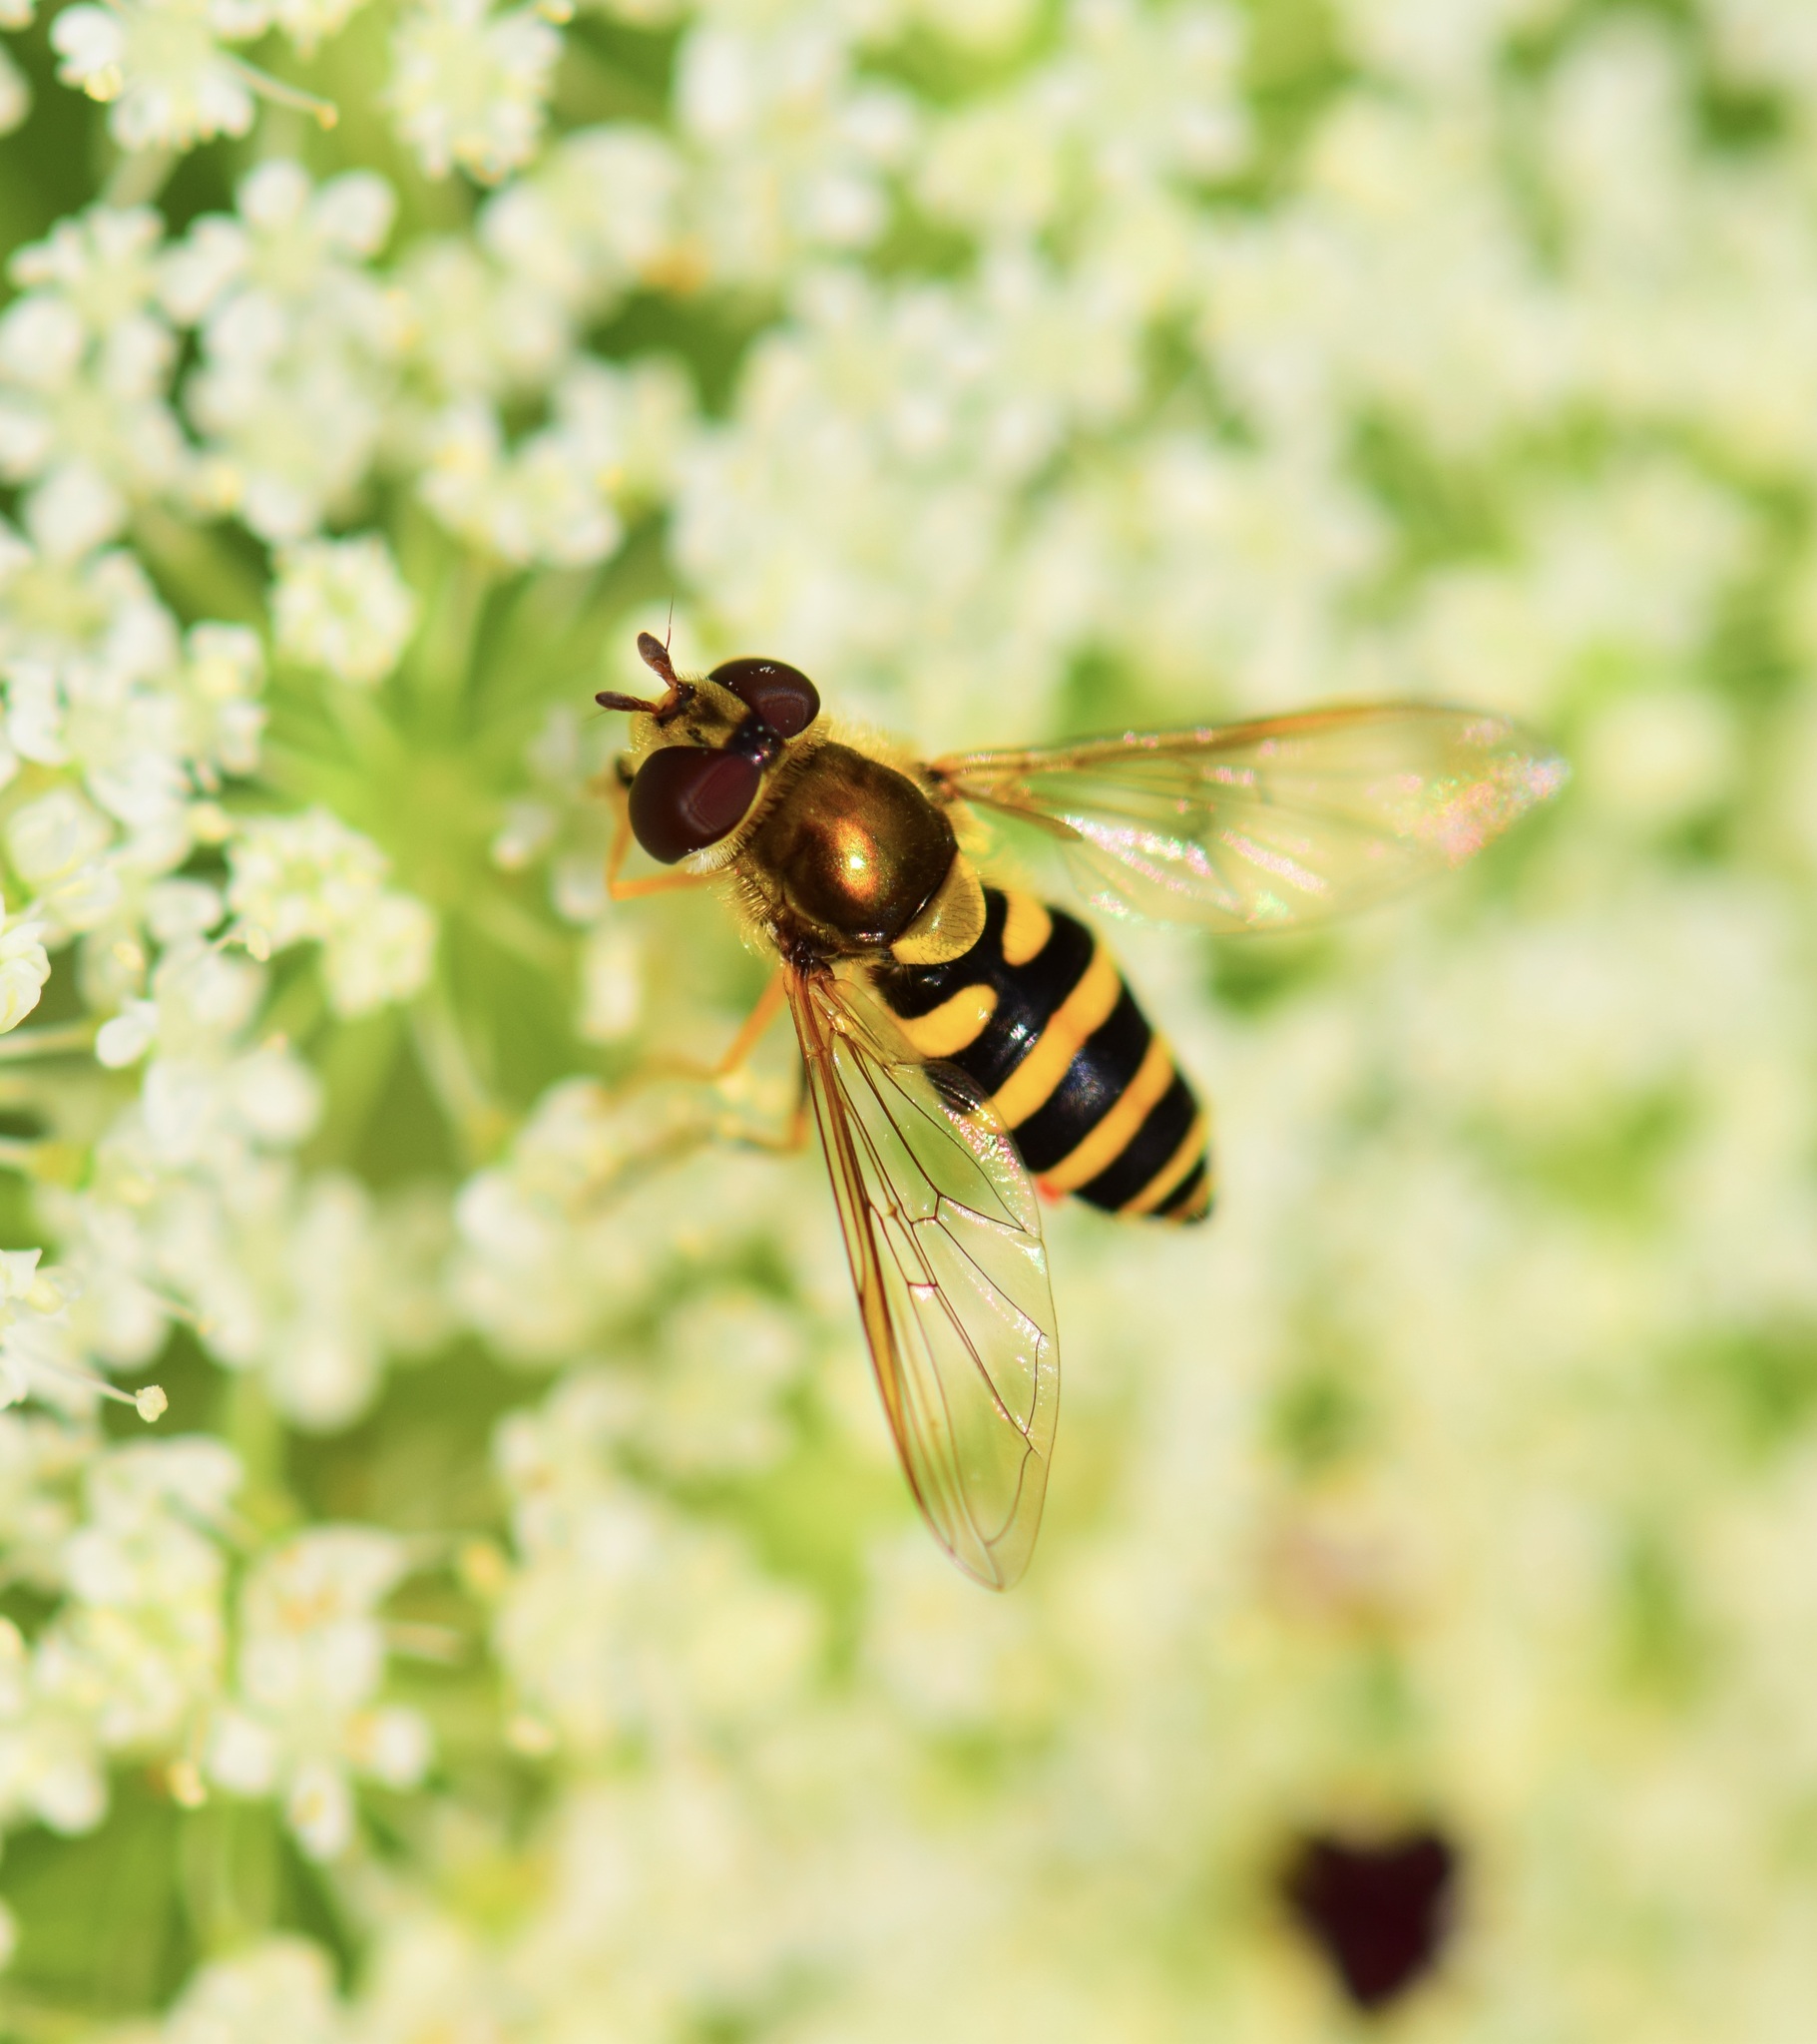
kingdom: Animalia
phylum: Arthropoda
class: Insecta
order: Diptera
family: Syrphidae
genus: Syrphus
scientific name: Syrphus
